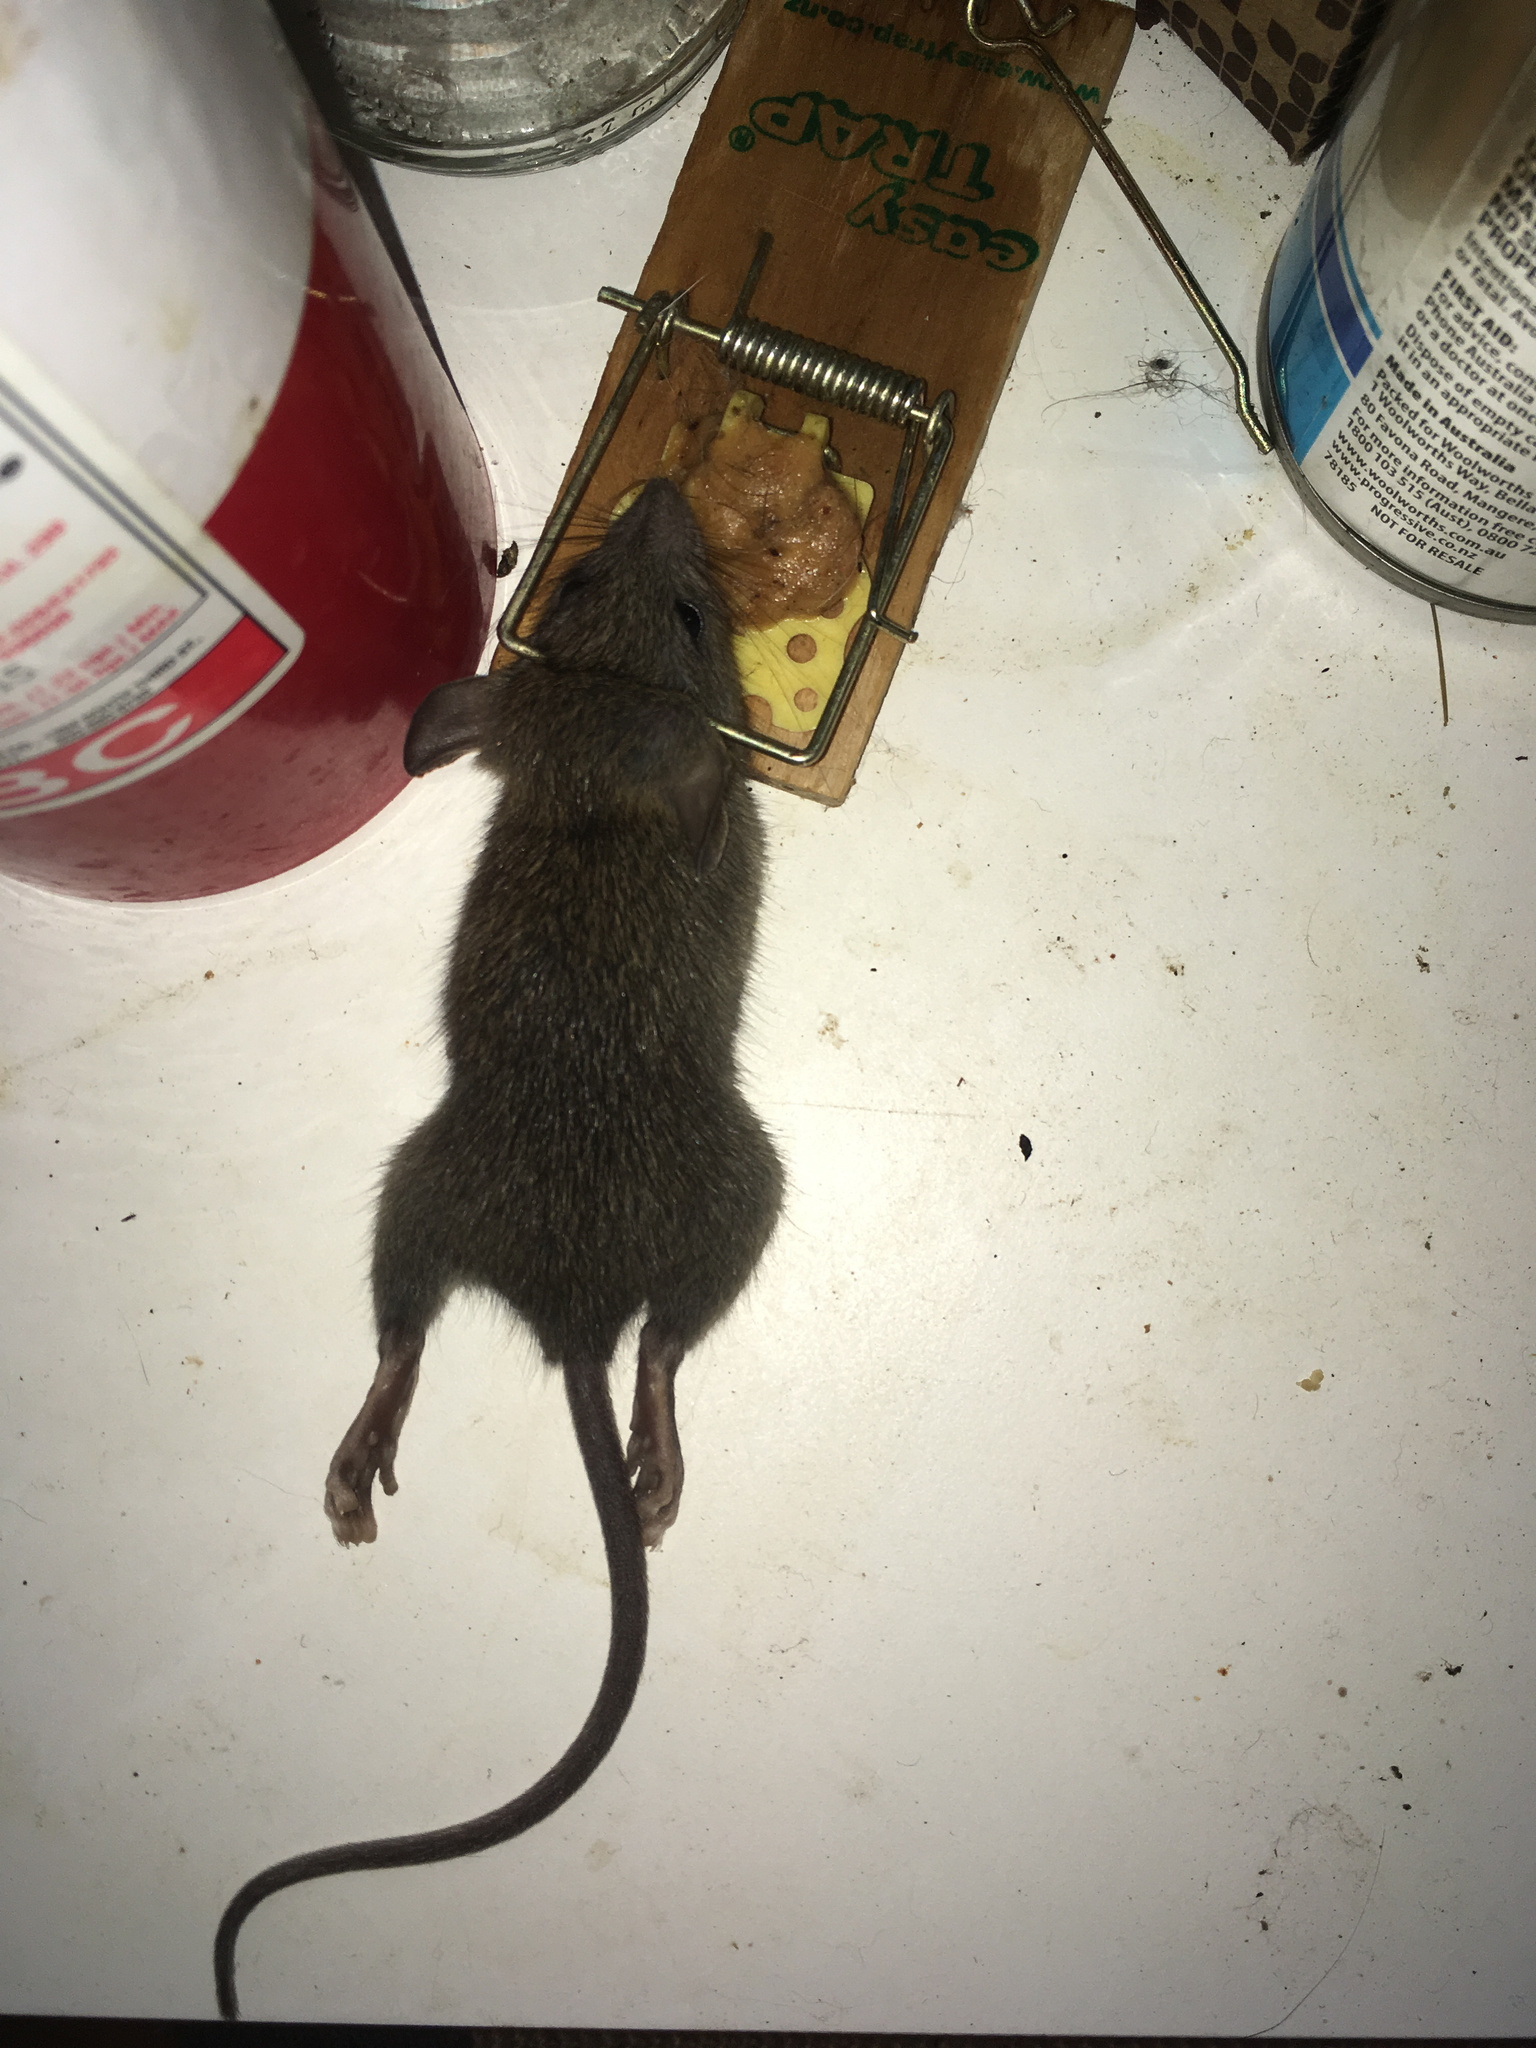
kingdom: Animalia
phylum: Chordata
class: Mammalia
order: Rodentia
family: Muridae
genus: Rattus
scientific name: Rattus rattus
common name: Black rat
